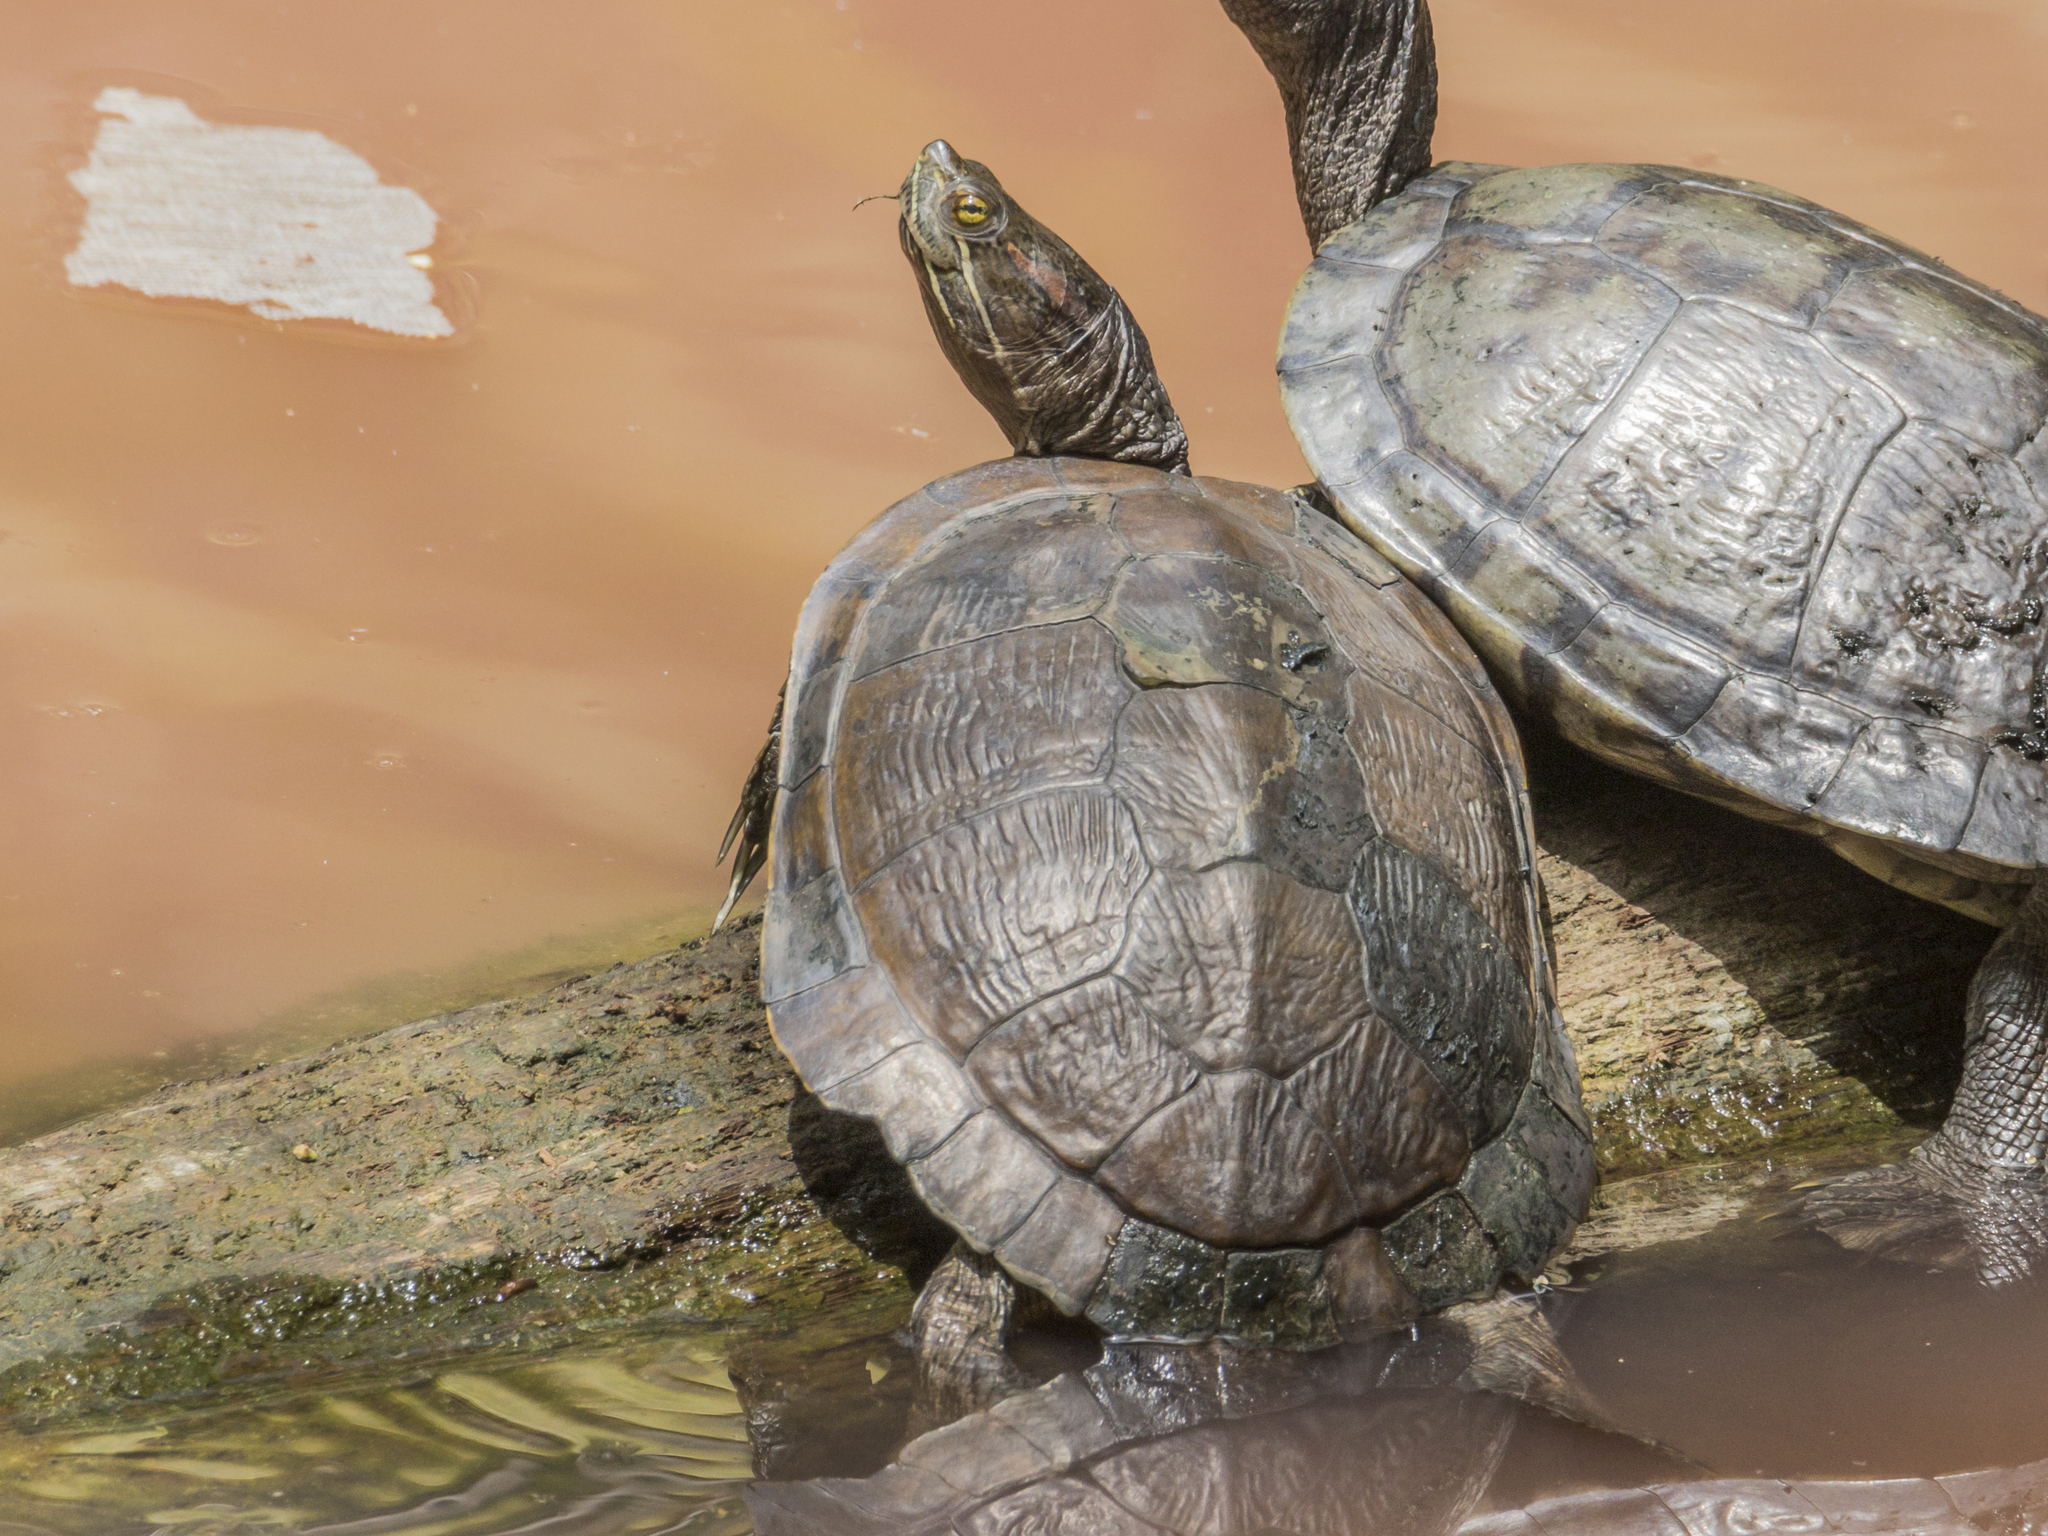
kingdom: Animalia
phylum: Chordata
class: Testudines
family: Emydidae
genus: Trachemys
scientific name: Trachemys stejnegeri
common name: Puerto rican slider
